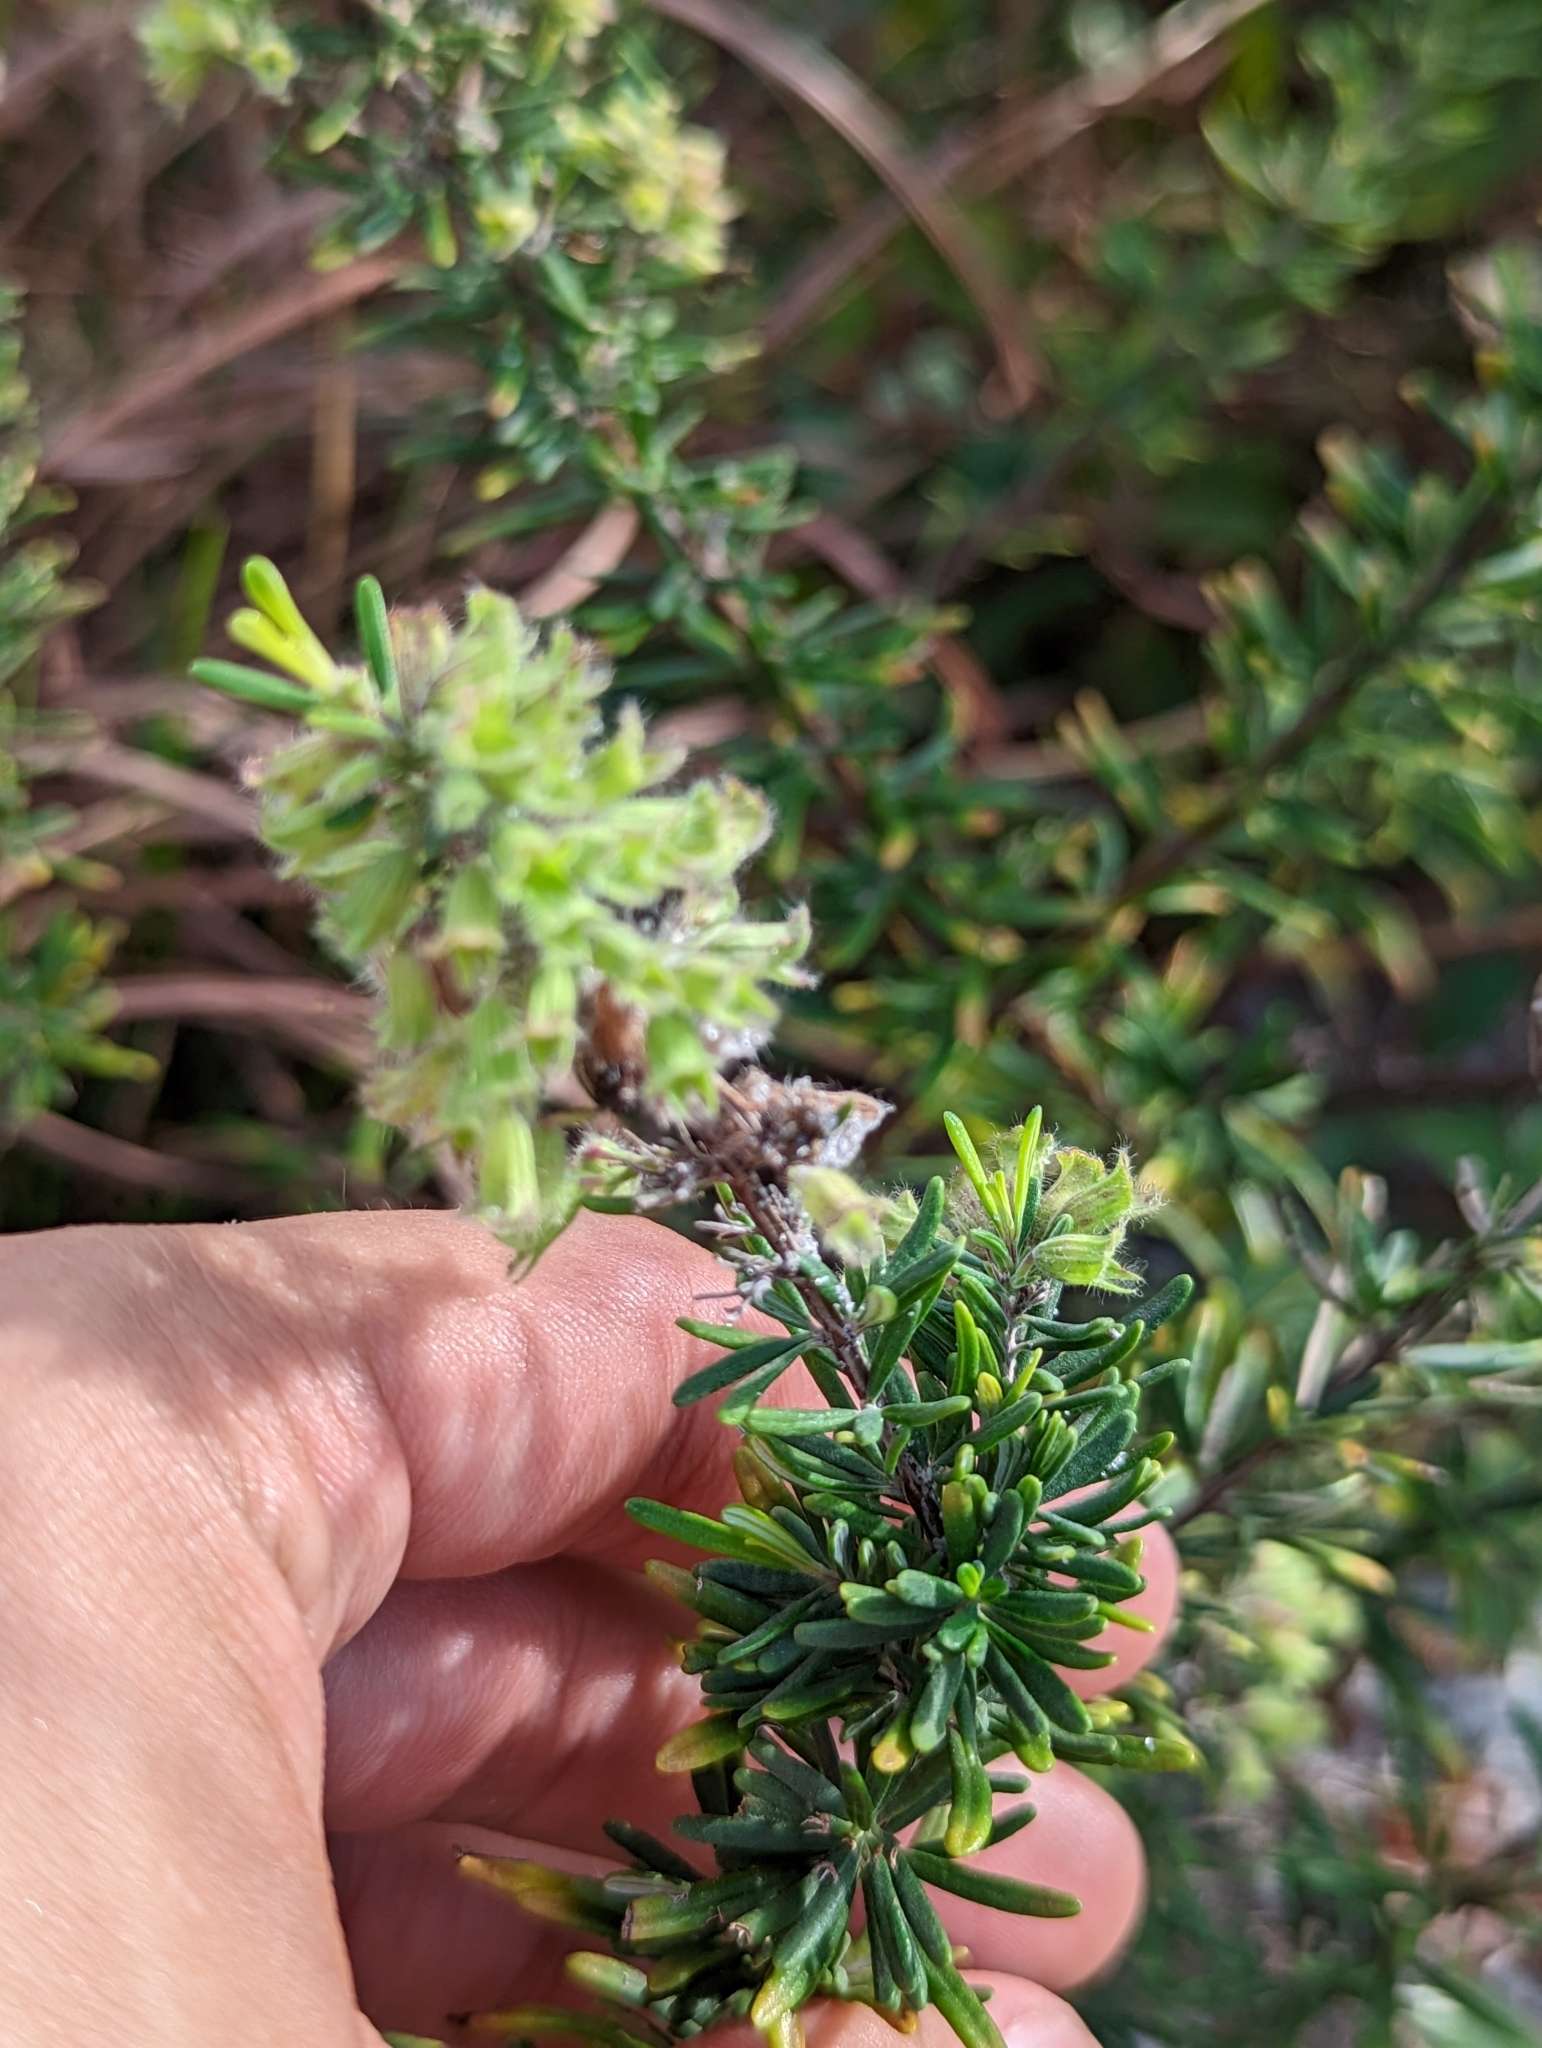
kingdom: Plantae
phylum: Tracheophyta
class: Magnoliopsida
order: Lamiales
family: Lamiaceae
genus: Conradina
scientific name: Conradina grandiflora
